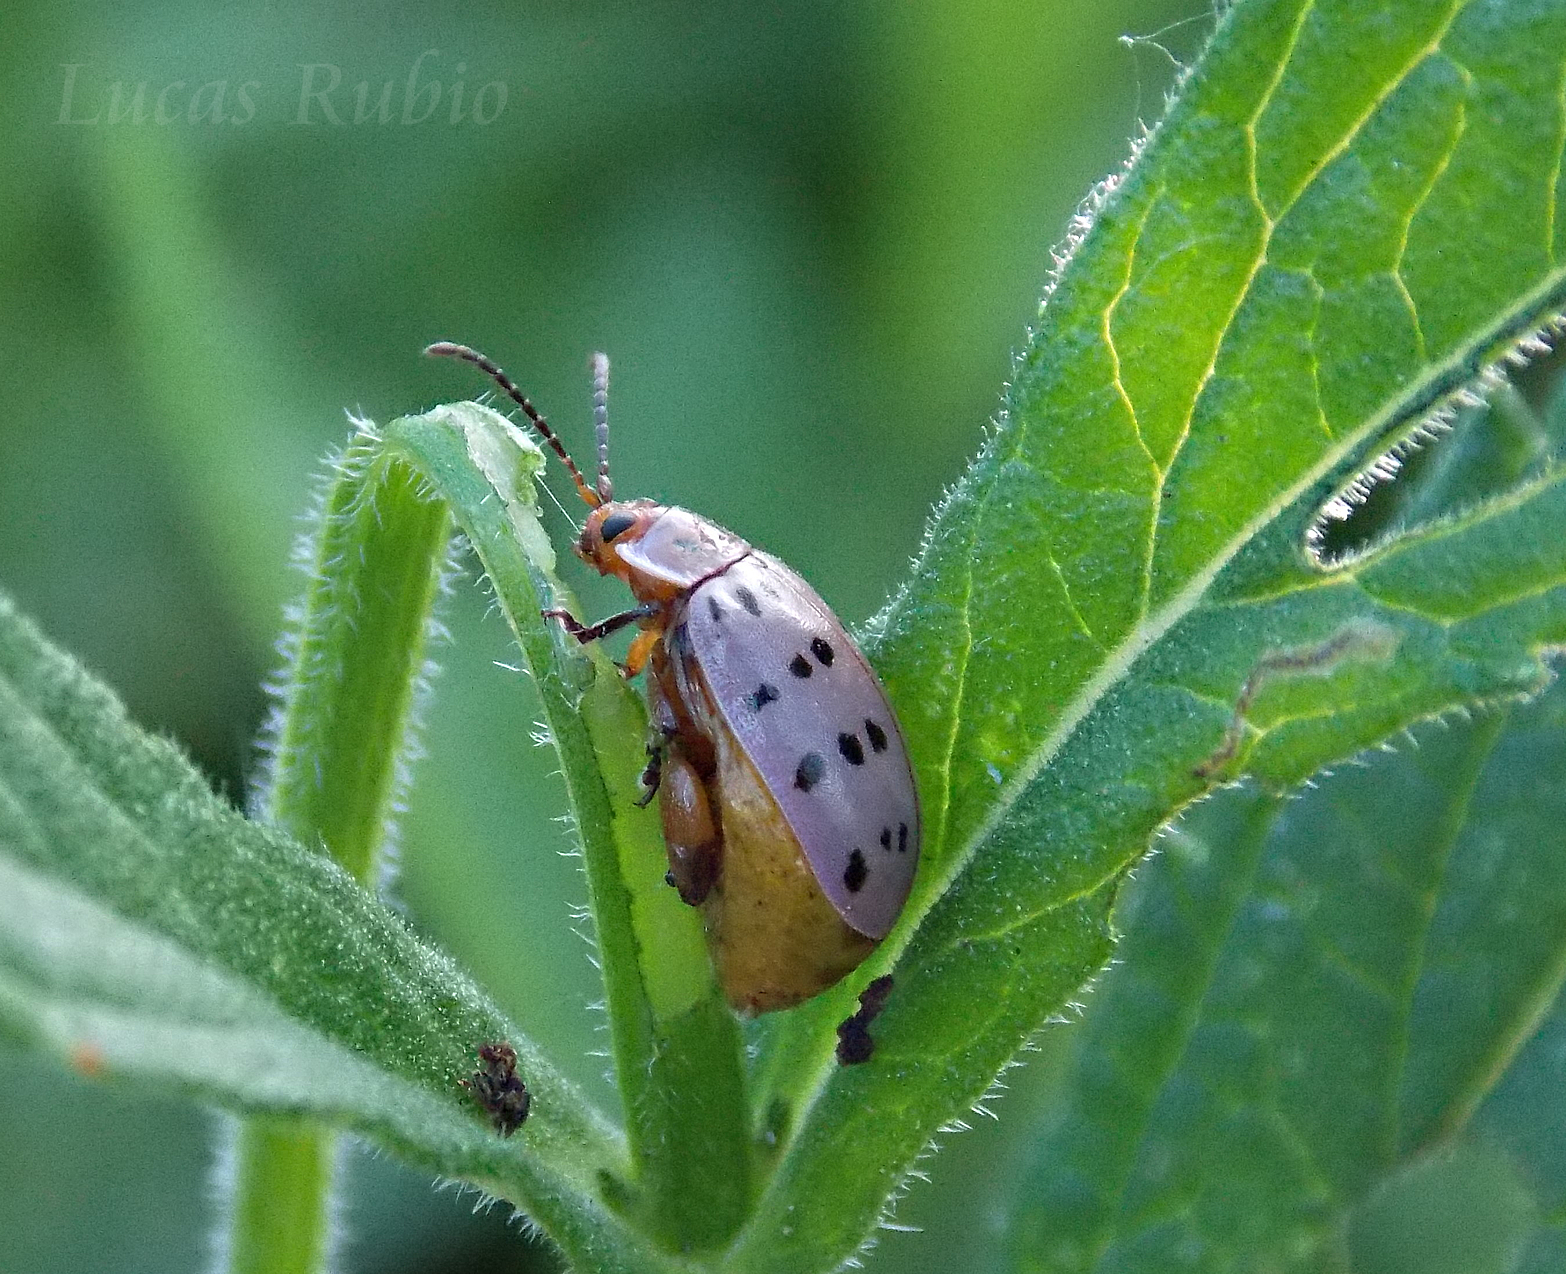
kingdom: Animalia
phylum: Arthropoda
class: Insecta
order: Coleoptera
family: Chrysomelidae
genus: Alagoasa
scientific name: Alagoasa
